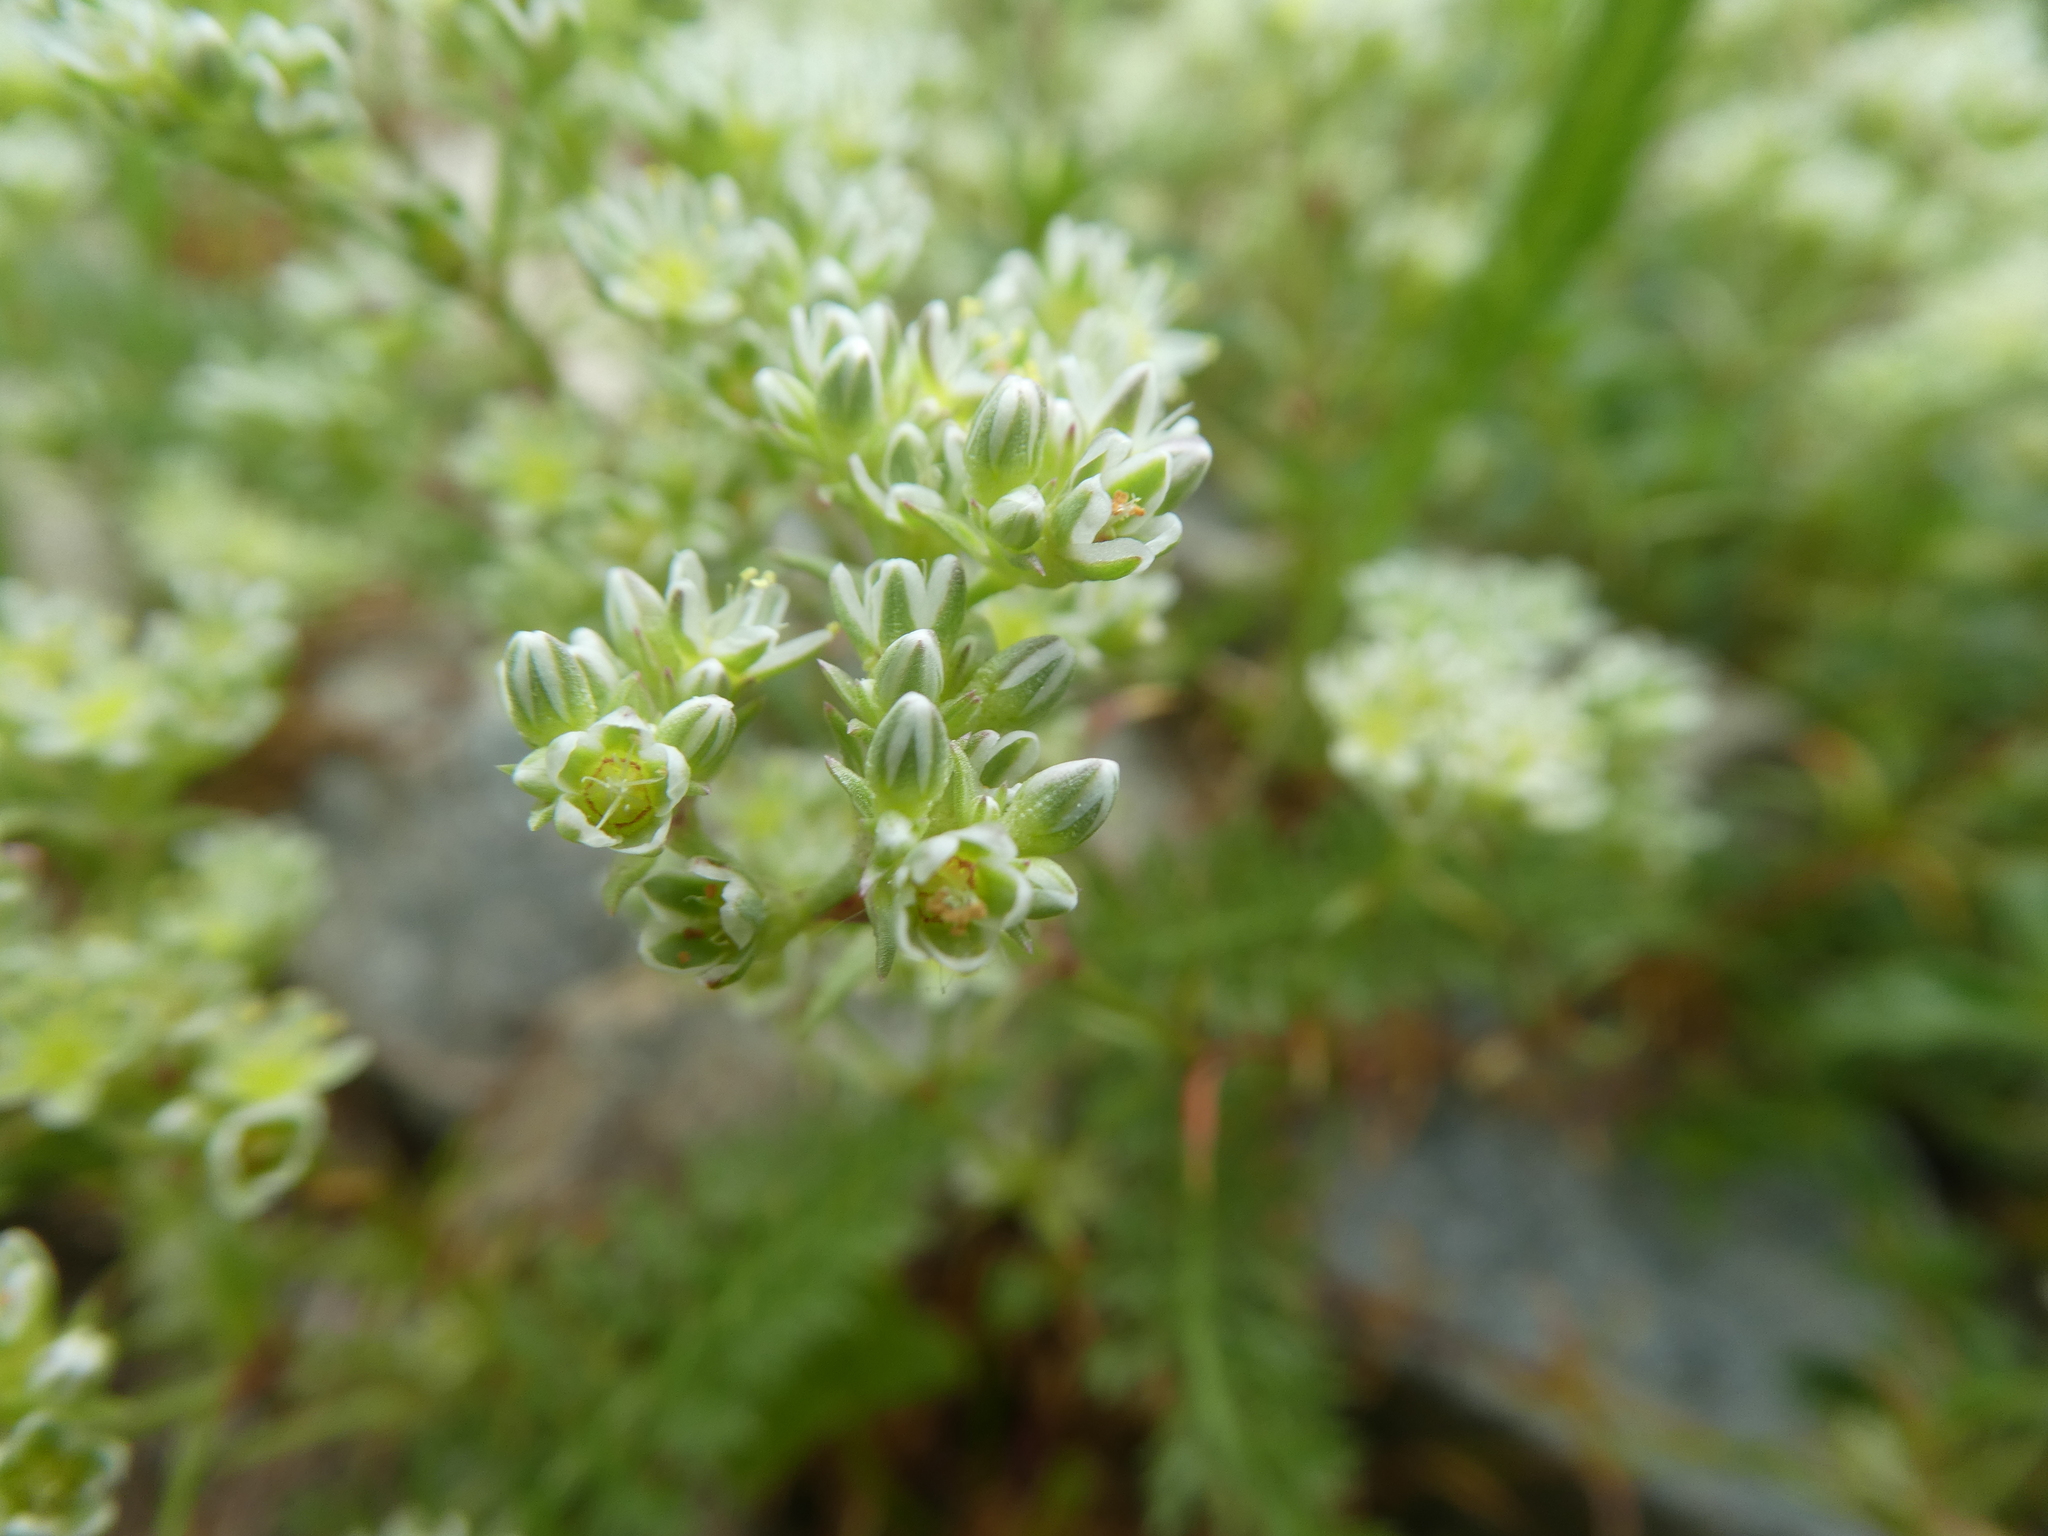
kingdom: Plantae
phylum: Tracheophyta
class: Magnoliopsida
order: Caryophyllales
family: Caryophyllaceae
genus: Scleranthus
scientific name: Scleranthus perennis
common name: Perennial knawel
